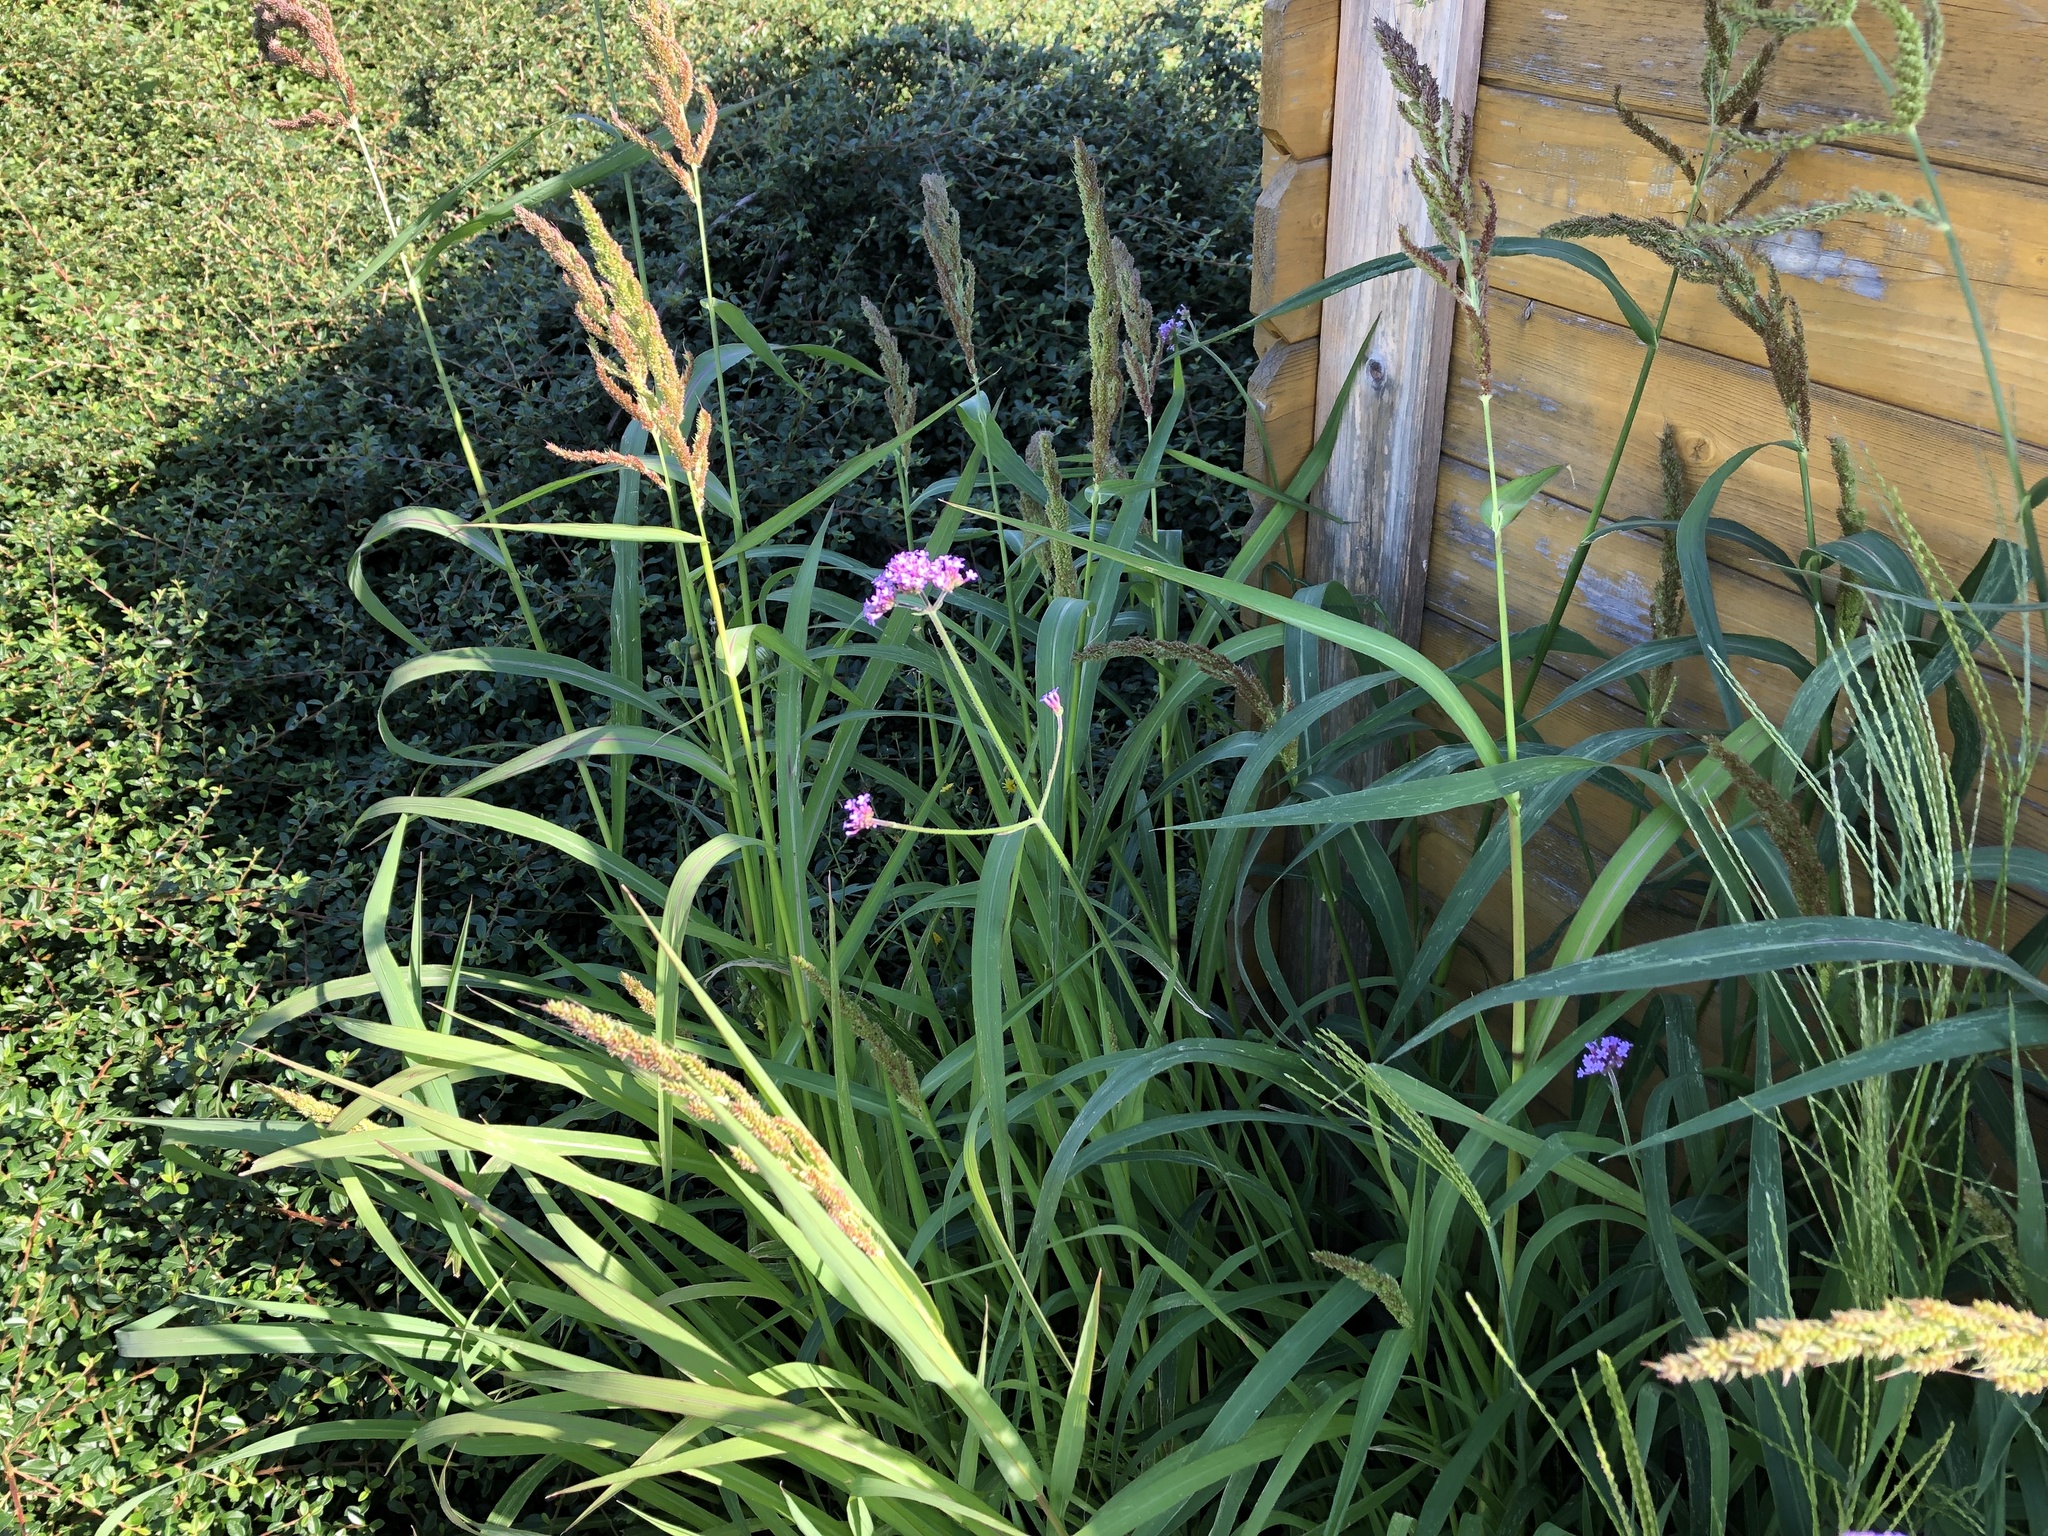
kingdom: Plantae
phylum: Tracheophyta
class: Magnoliopsida
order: Lamiales
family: Verbenaceae
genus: Verbena
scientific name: Verbena bonariensis
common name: Purpletop vervain
